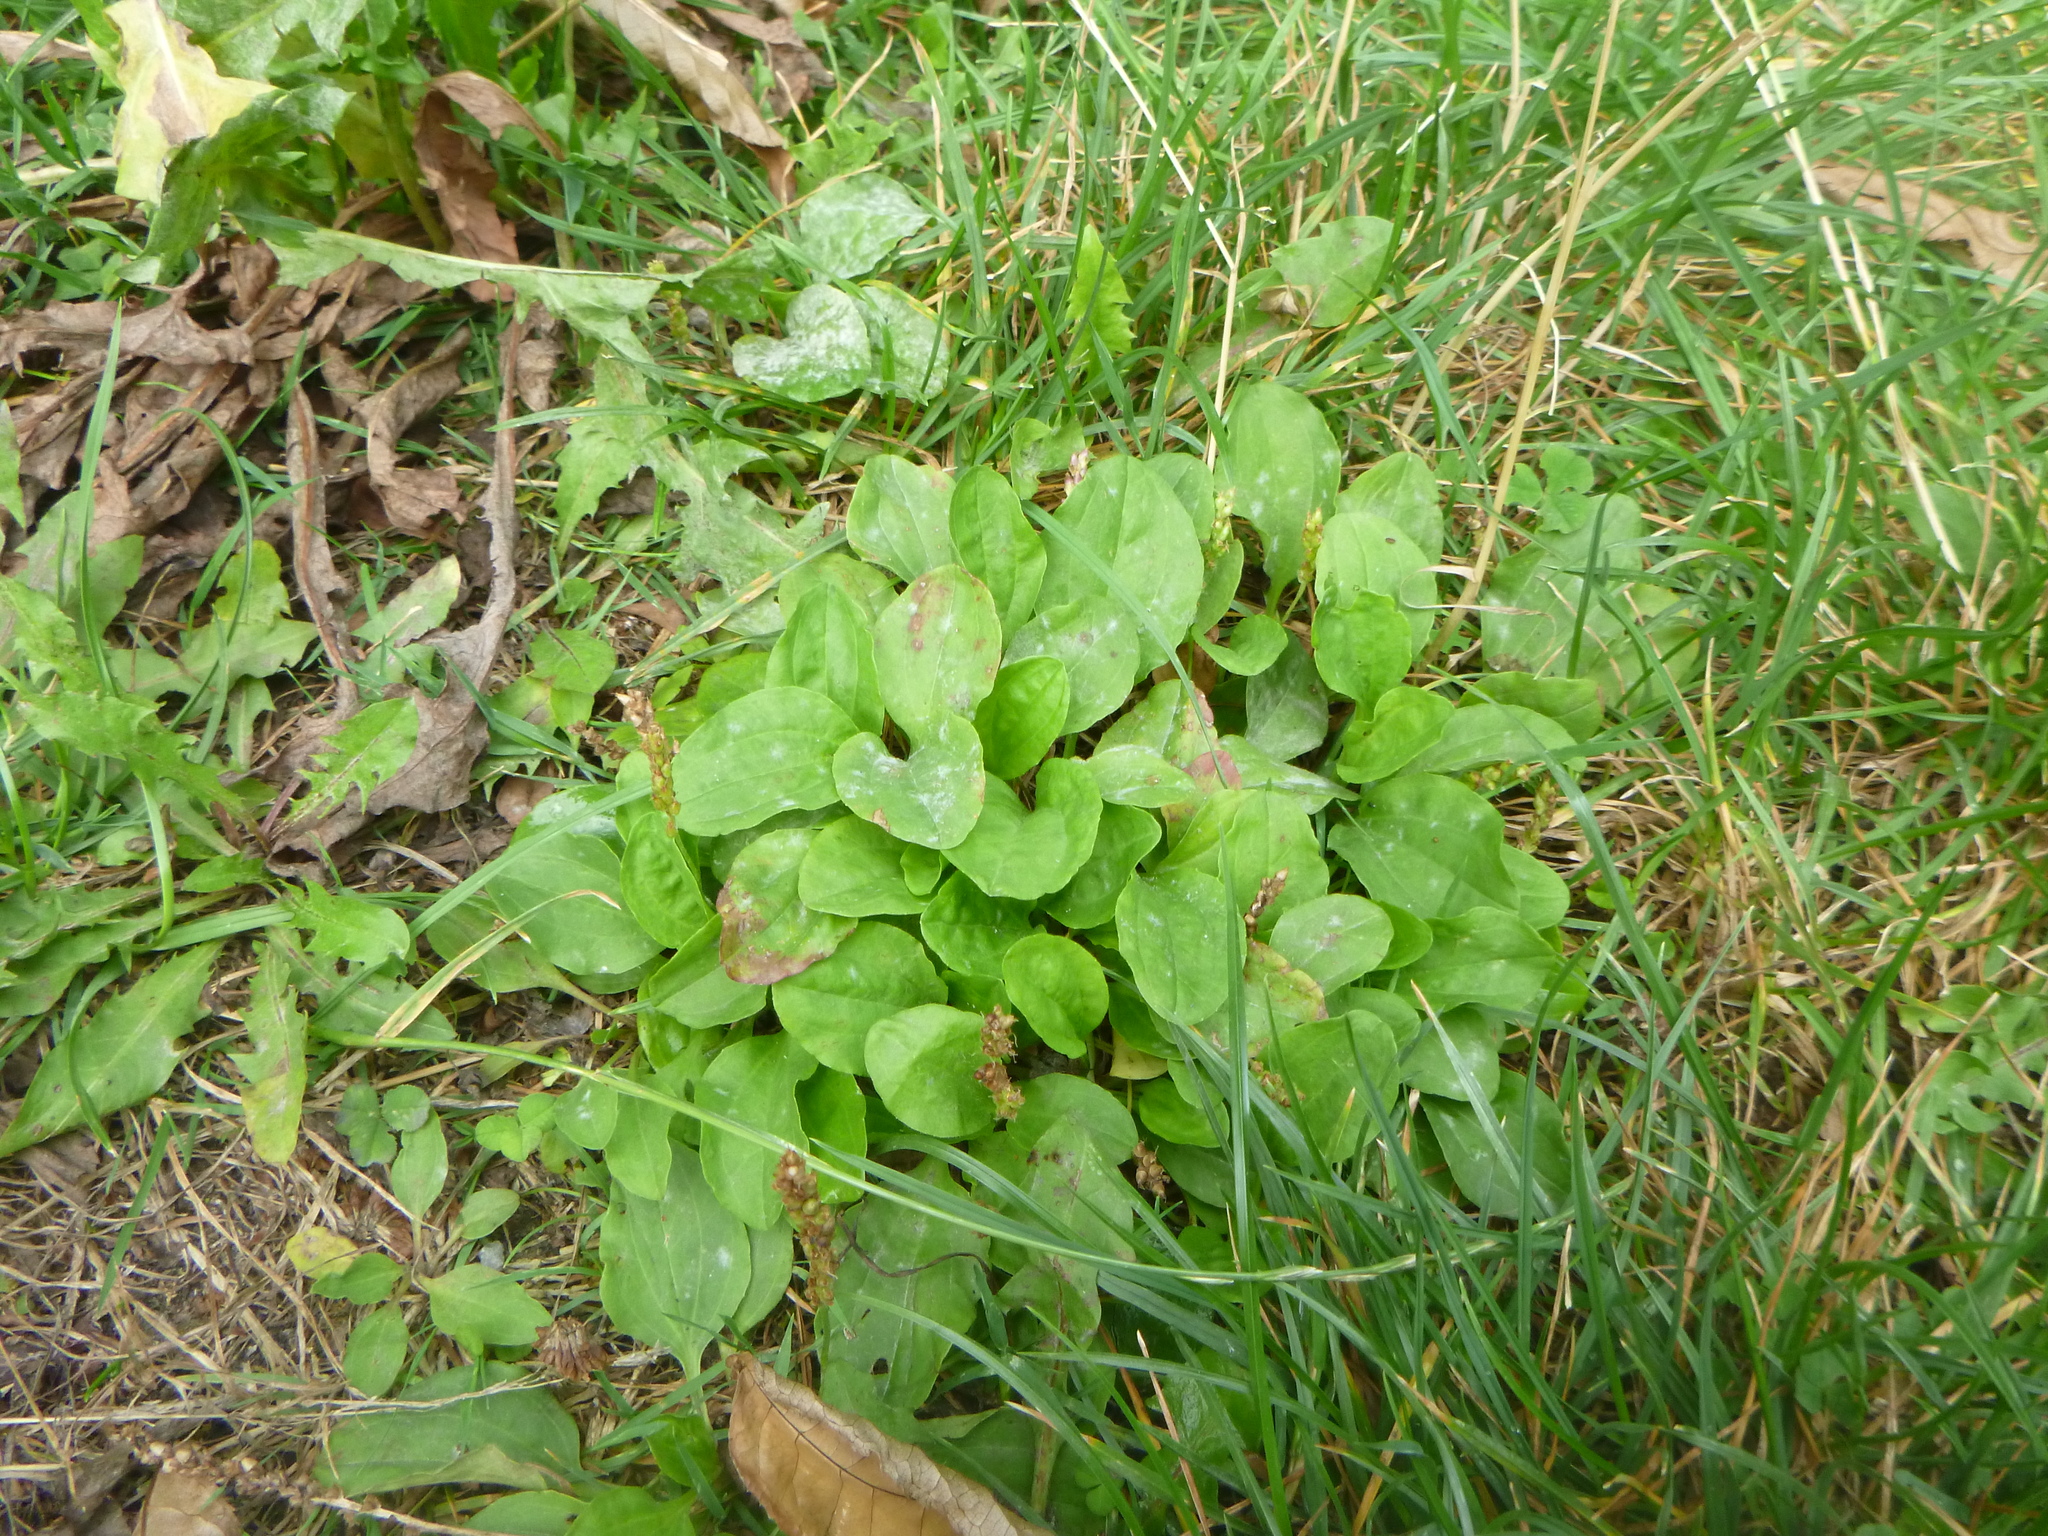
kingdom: Plantae
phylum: Tracheophyta
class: Magnoliopsida
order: Lamiales
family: Plantaginaceae
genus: Plantago
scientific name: Plantago major
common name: Common plantain
